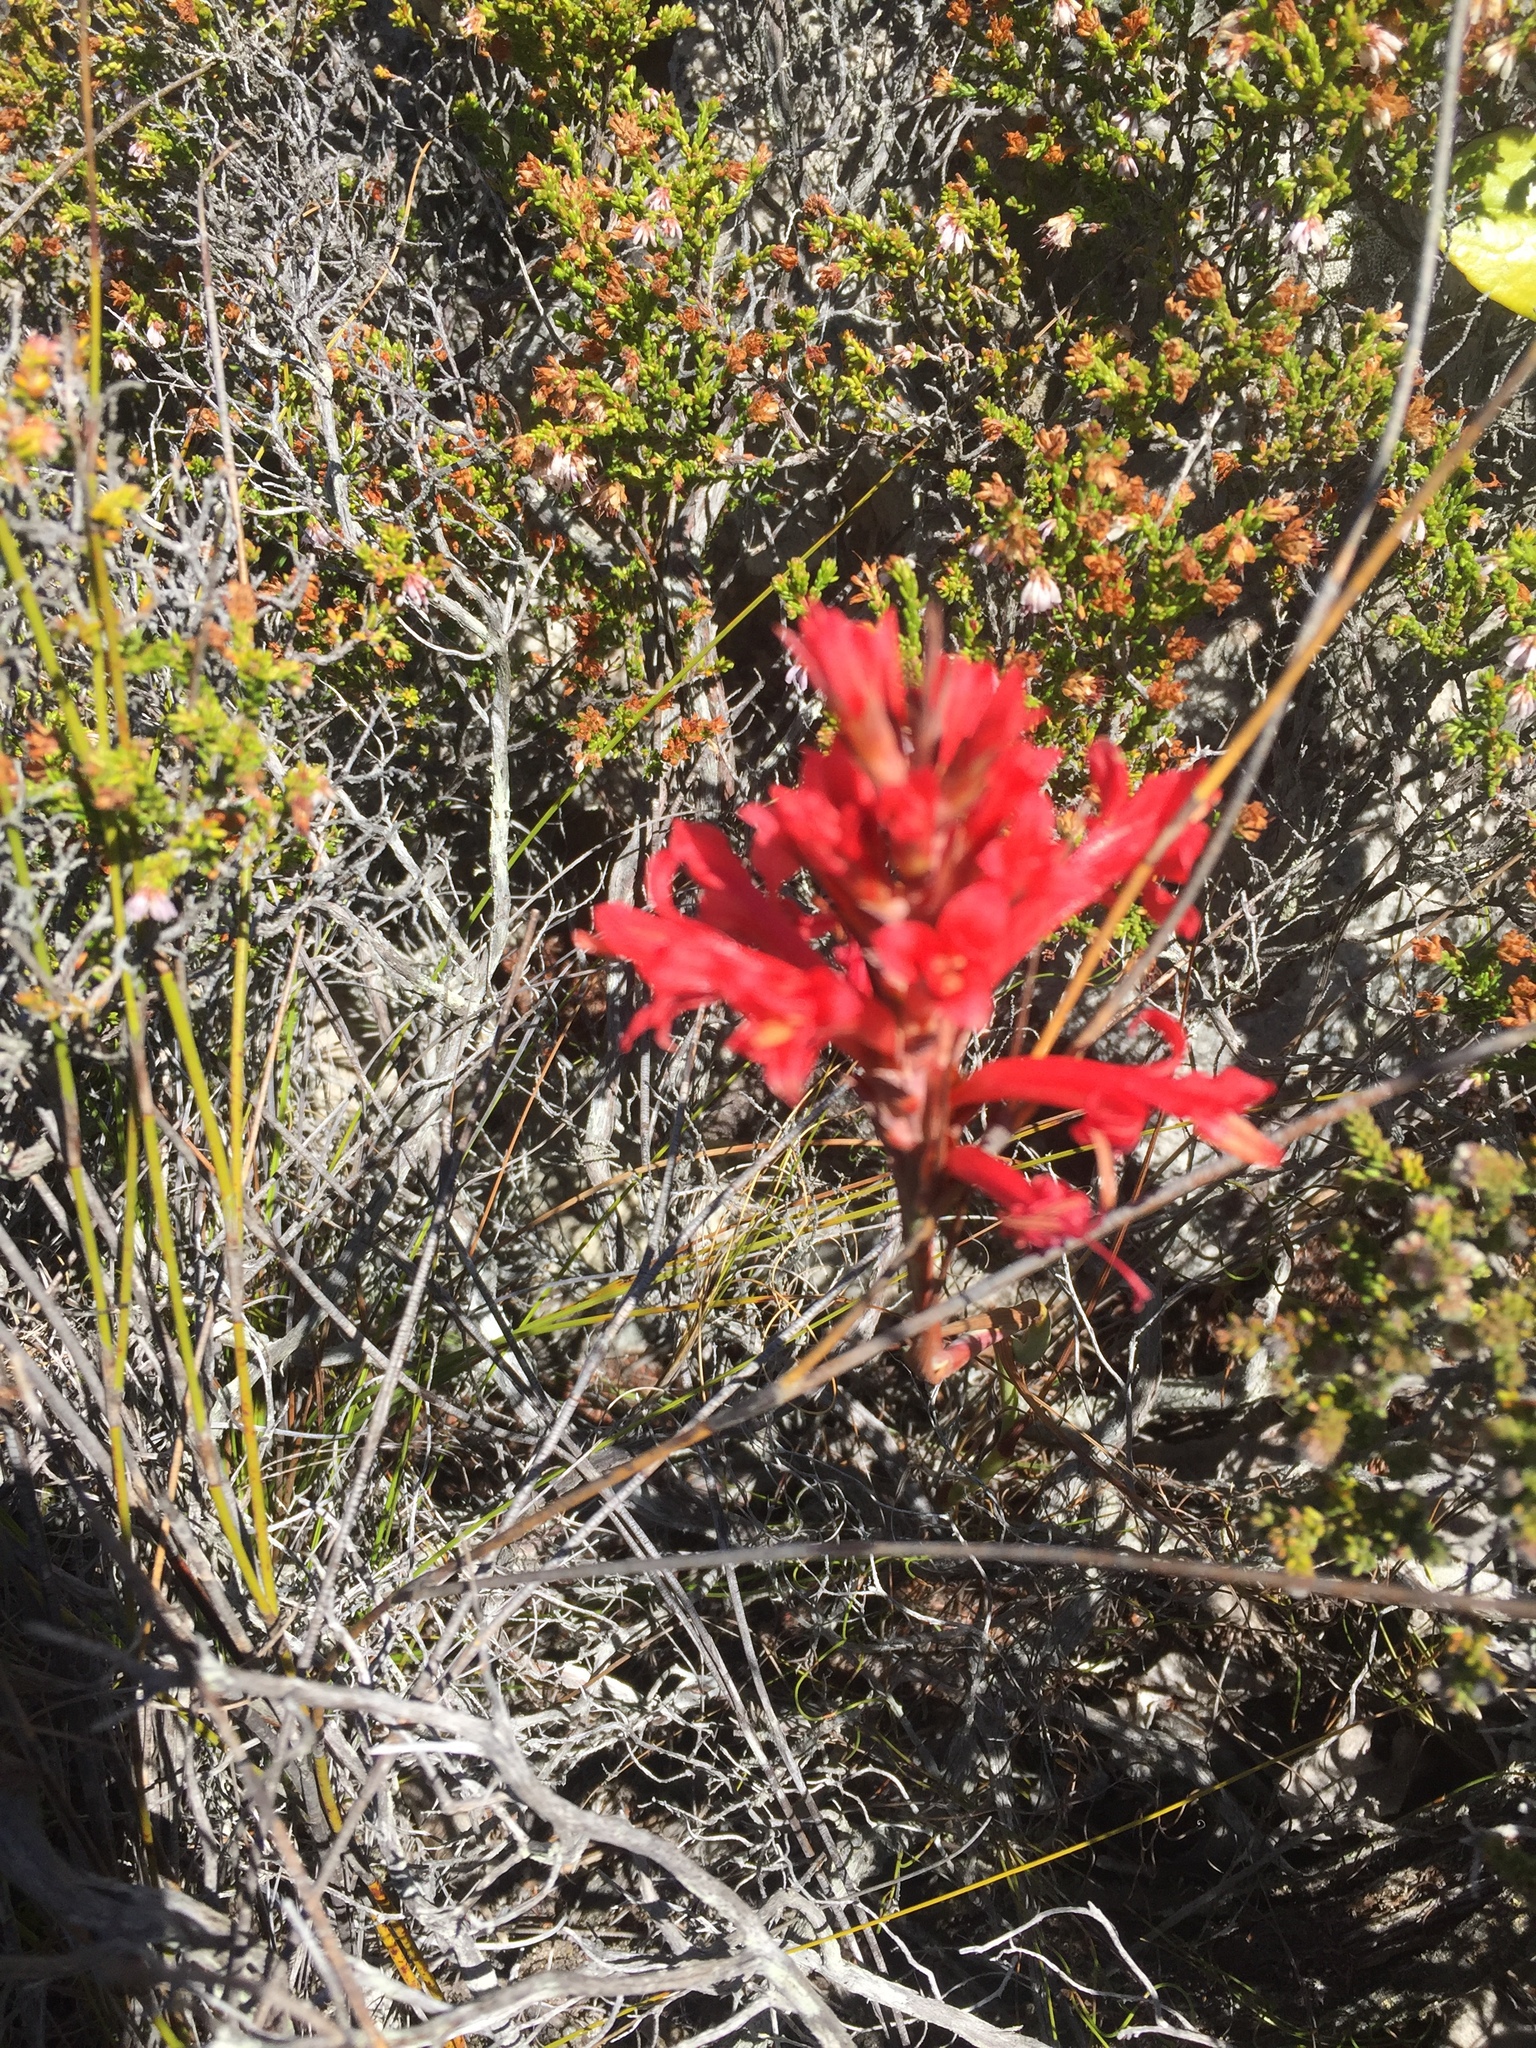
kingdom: Plantae
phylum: Tracheophyta
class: Liliopsida
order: Asparagales
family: Iridaceae
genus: Tritoniopsis
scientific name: Tritoniopsis triticea
